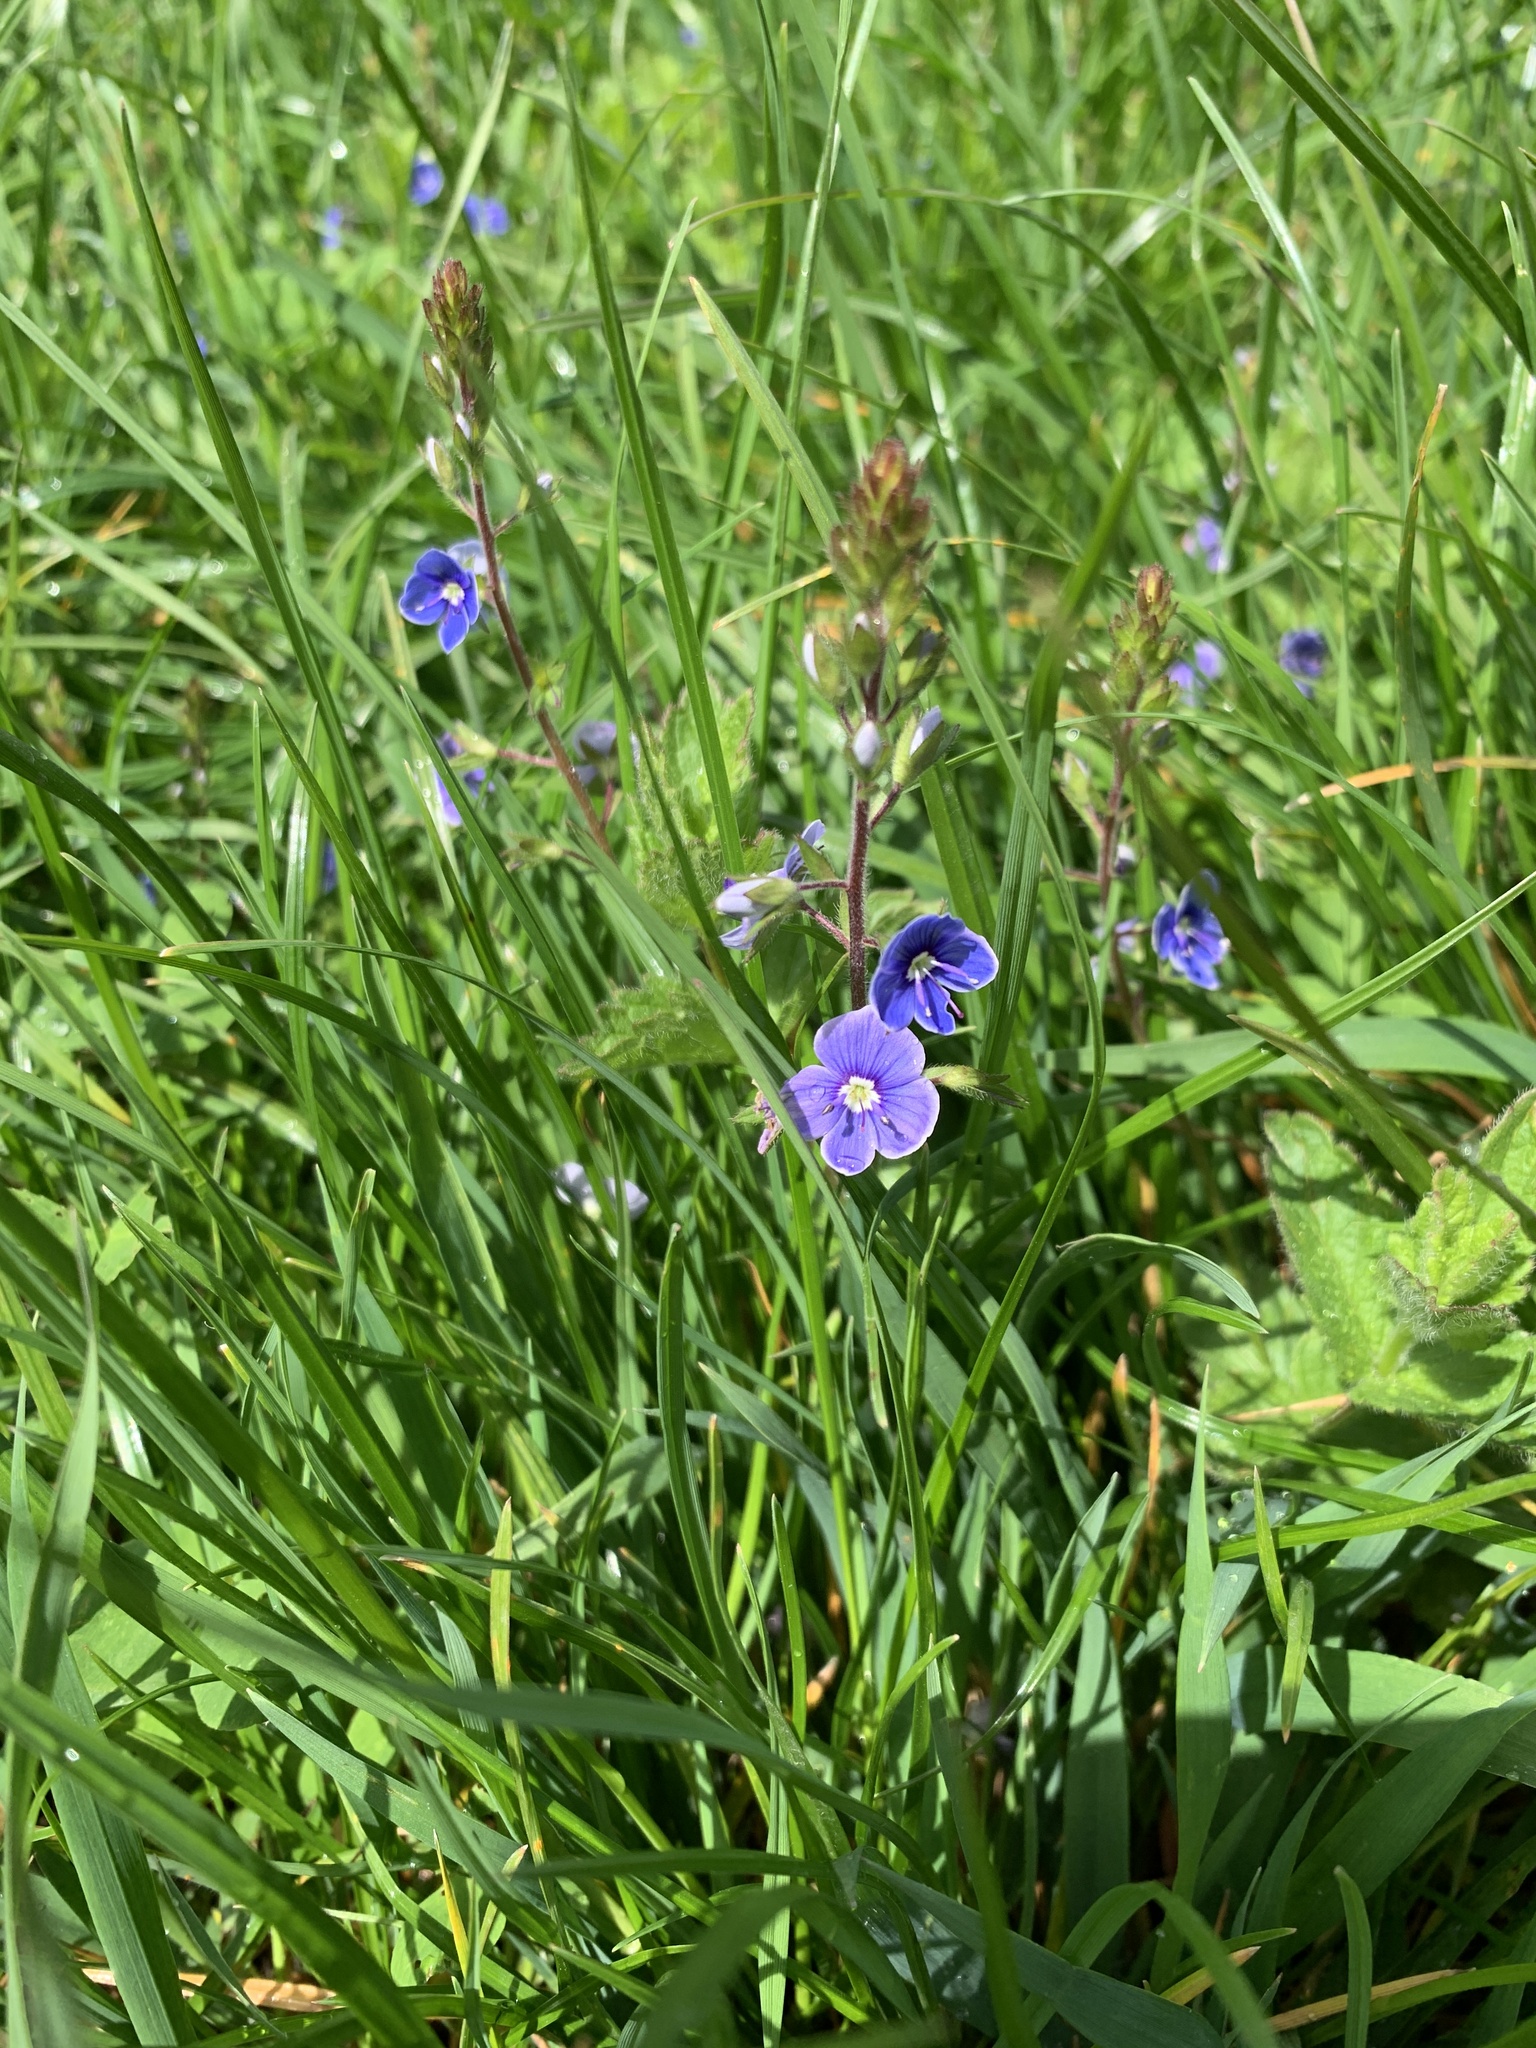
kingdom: Plantae
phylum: Tracheophyta
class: Magnoliopsida
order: Lamiales
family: Plantaginaceae
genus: Veronica
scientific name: Veronica chamaedrys
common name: Germander speedwell
